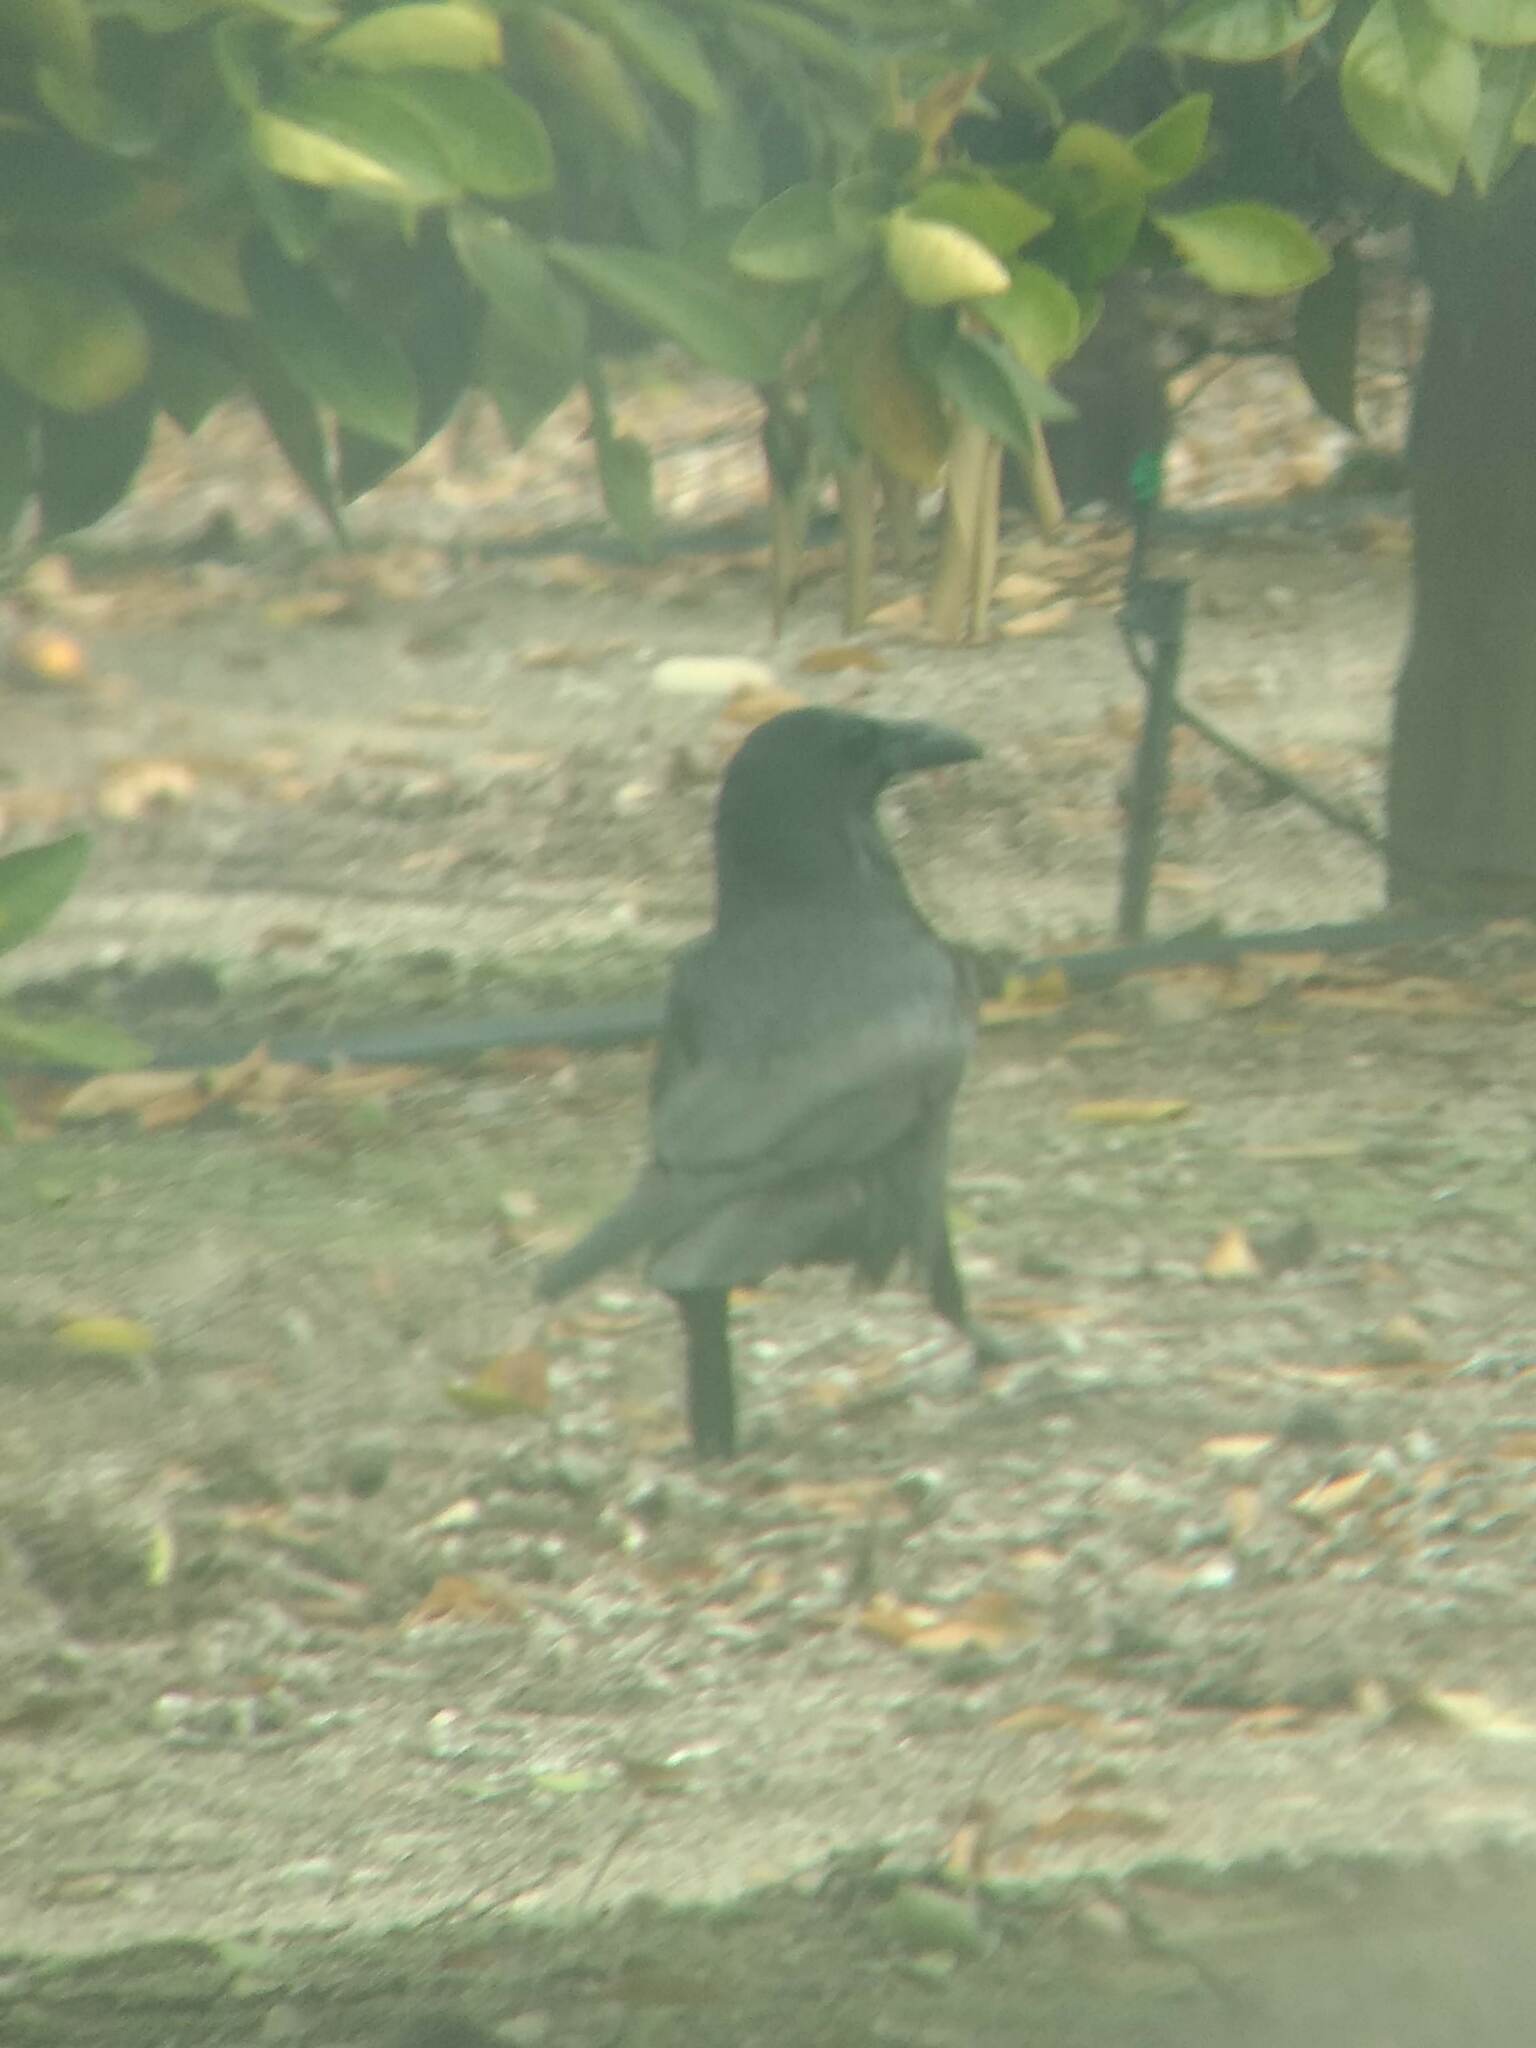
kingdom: Animalia
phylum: Chordata
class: Aves
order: Passeriformes
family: Corvidae
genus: Corvus
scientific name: Corvus corax
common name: Common raven
